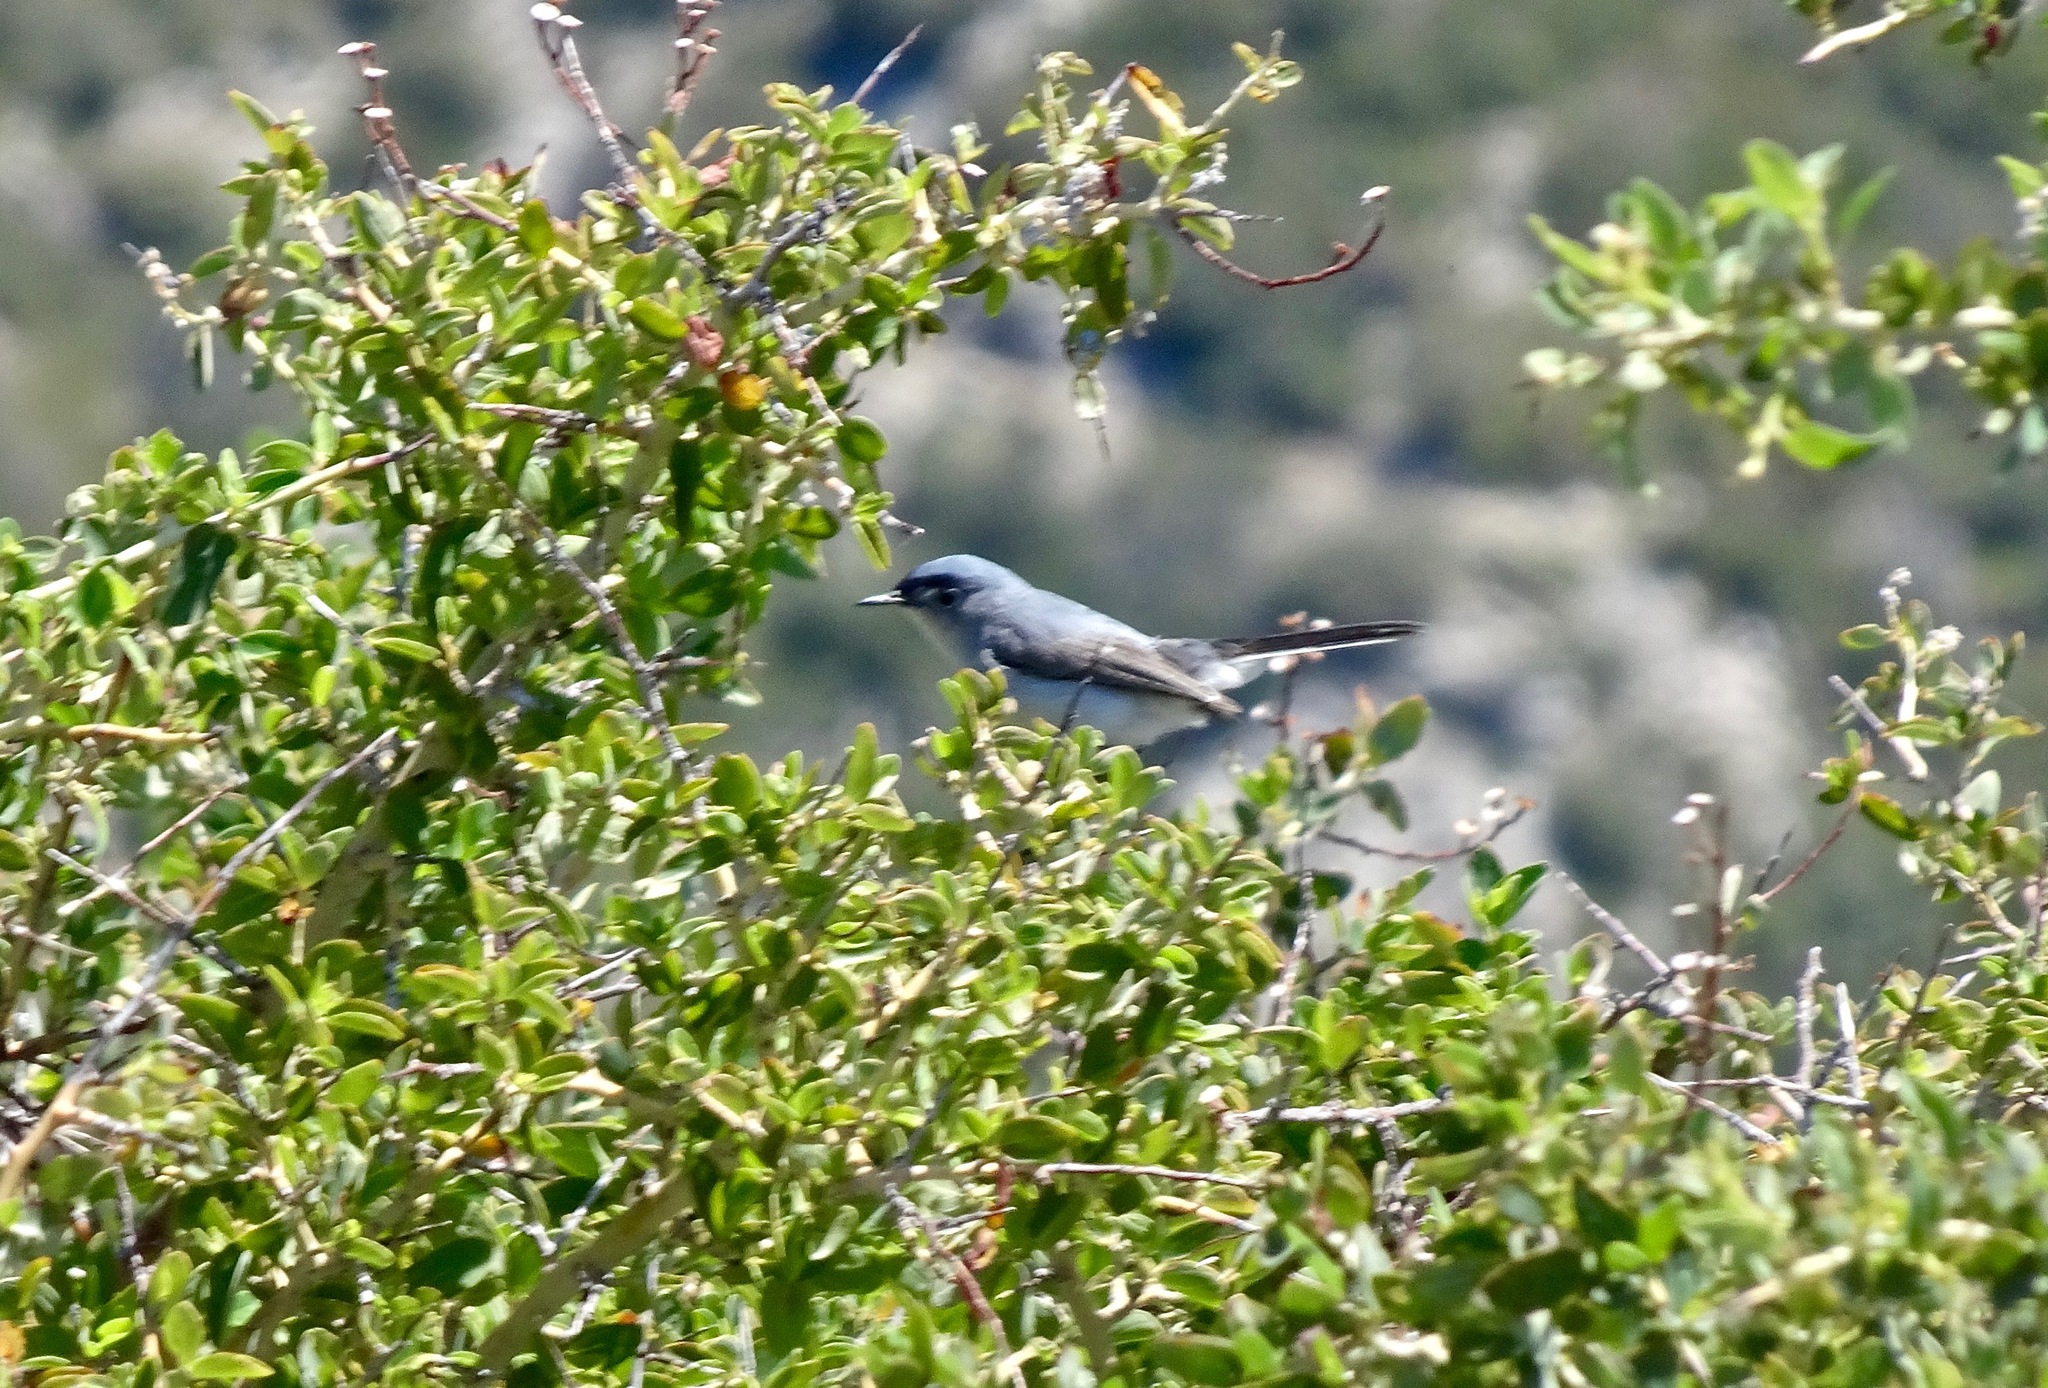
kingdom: Animalia
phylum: Chordata
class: Aves
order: Passeriformes
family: Polioptilidae
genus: Polioptila
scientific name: Polioptila caerulea
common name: Blue-gray gnatcatcher
